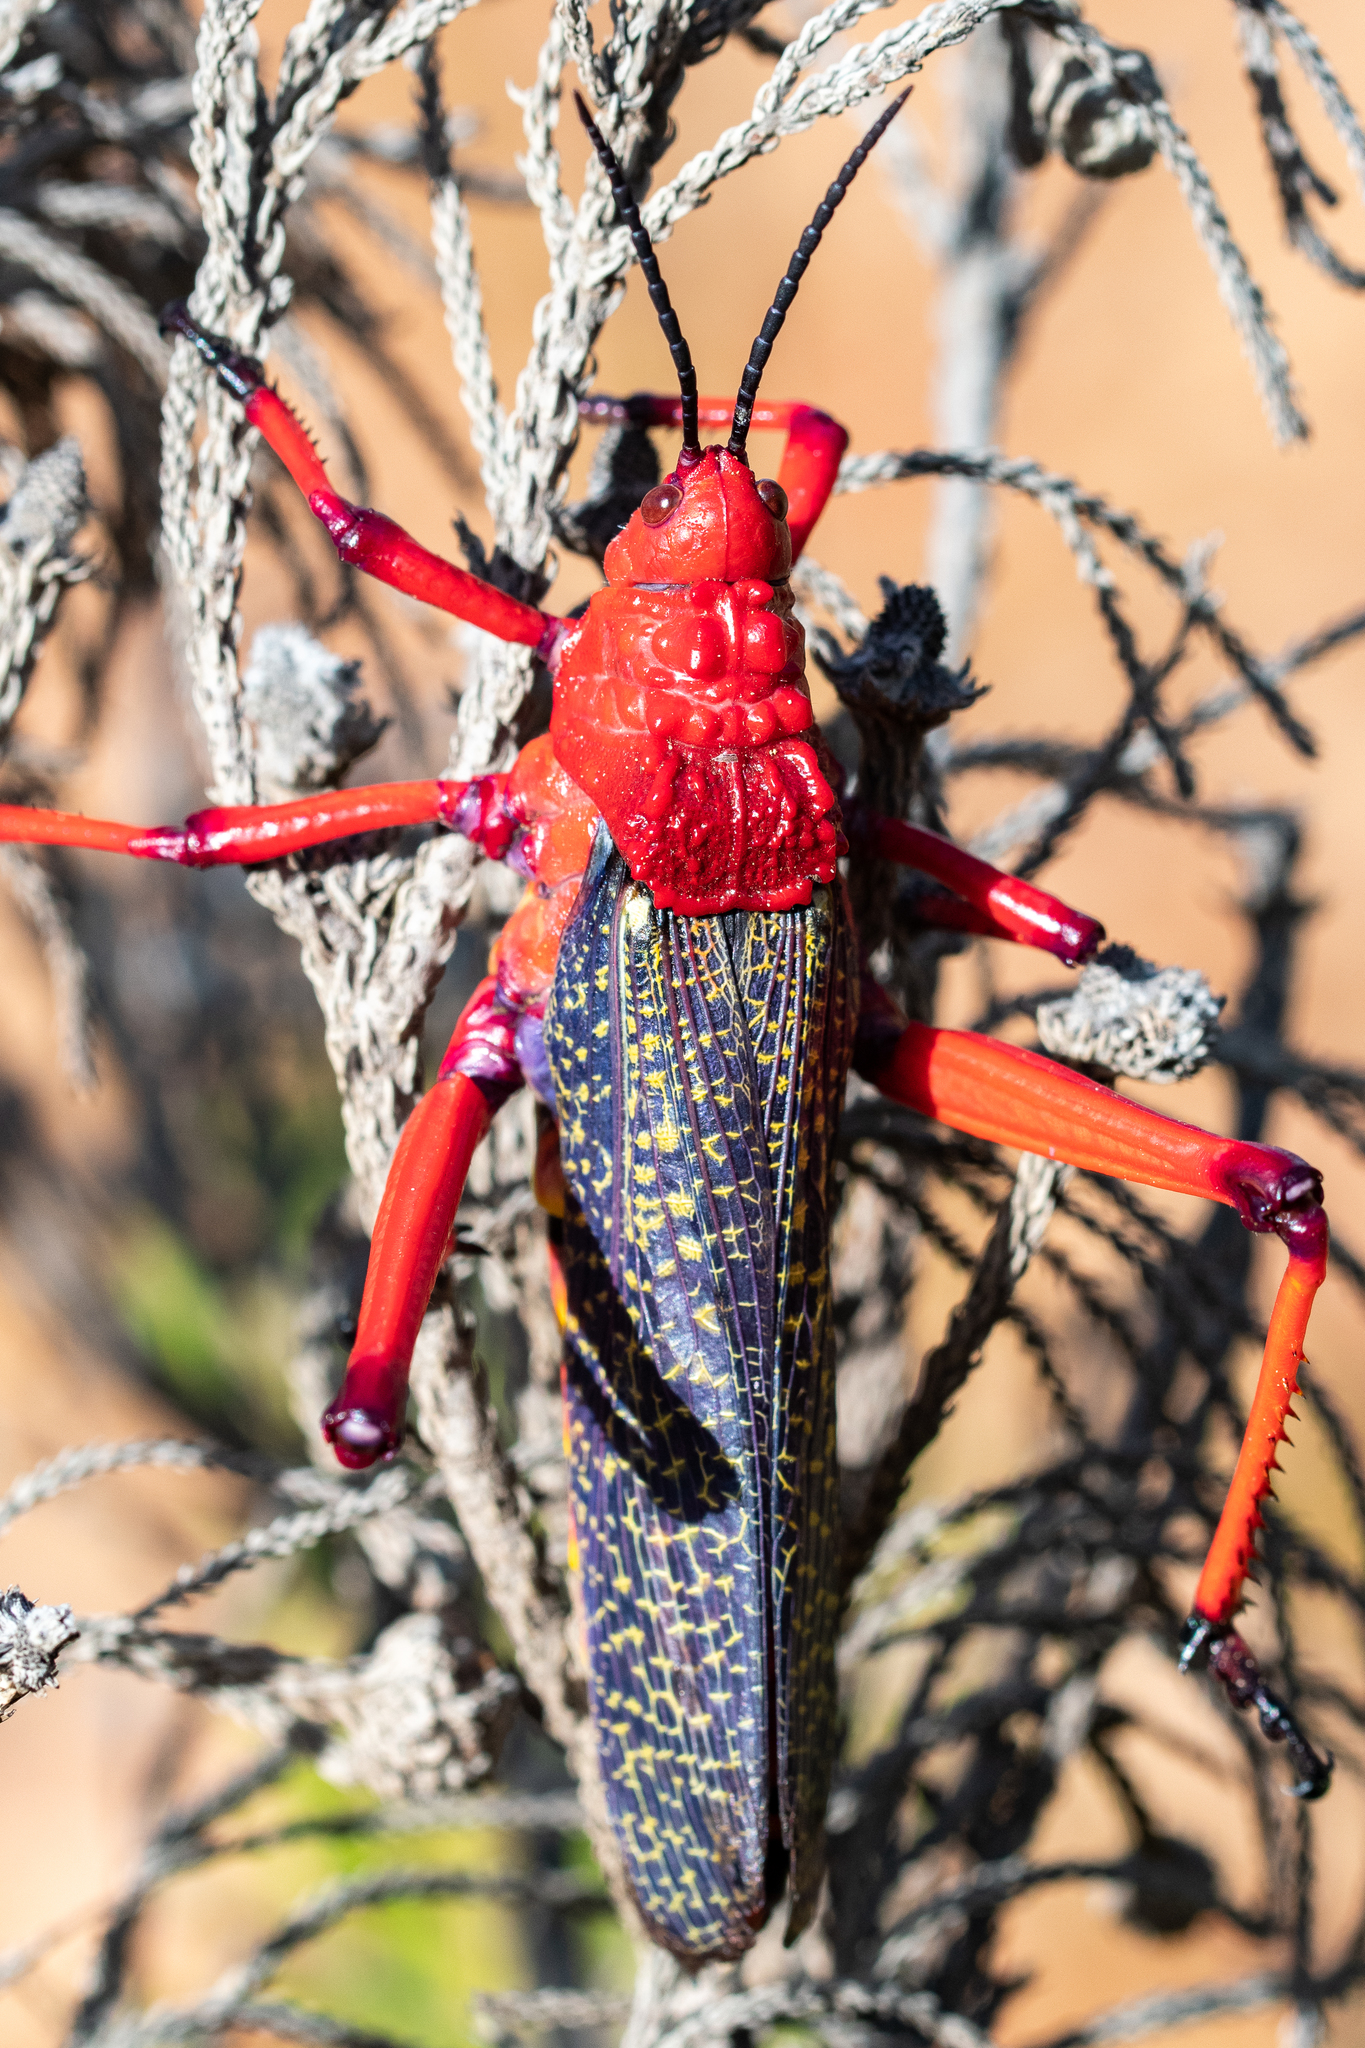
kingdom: Animalia
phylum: Arthropoda
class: Insecta
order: Orthoptera
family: Pyrgomorphidae
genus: Phymateus
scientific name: Phymateus morbillosus
